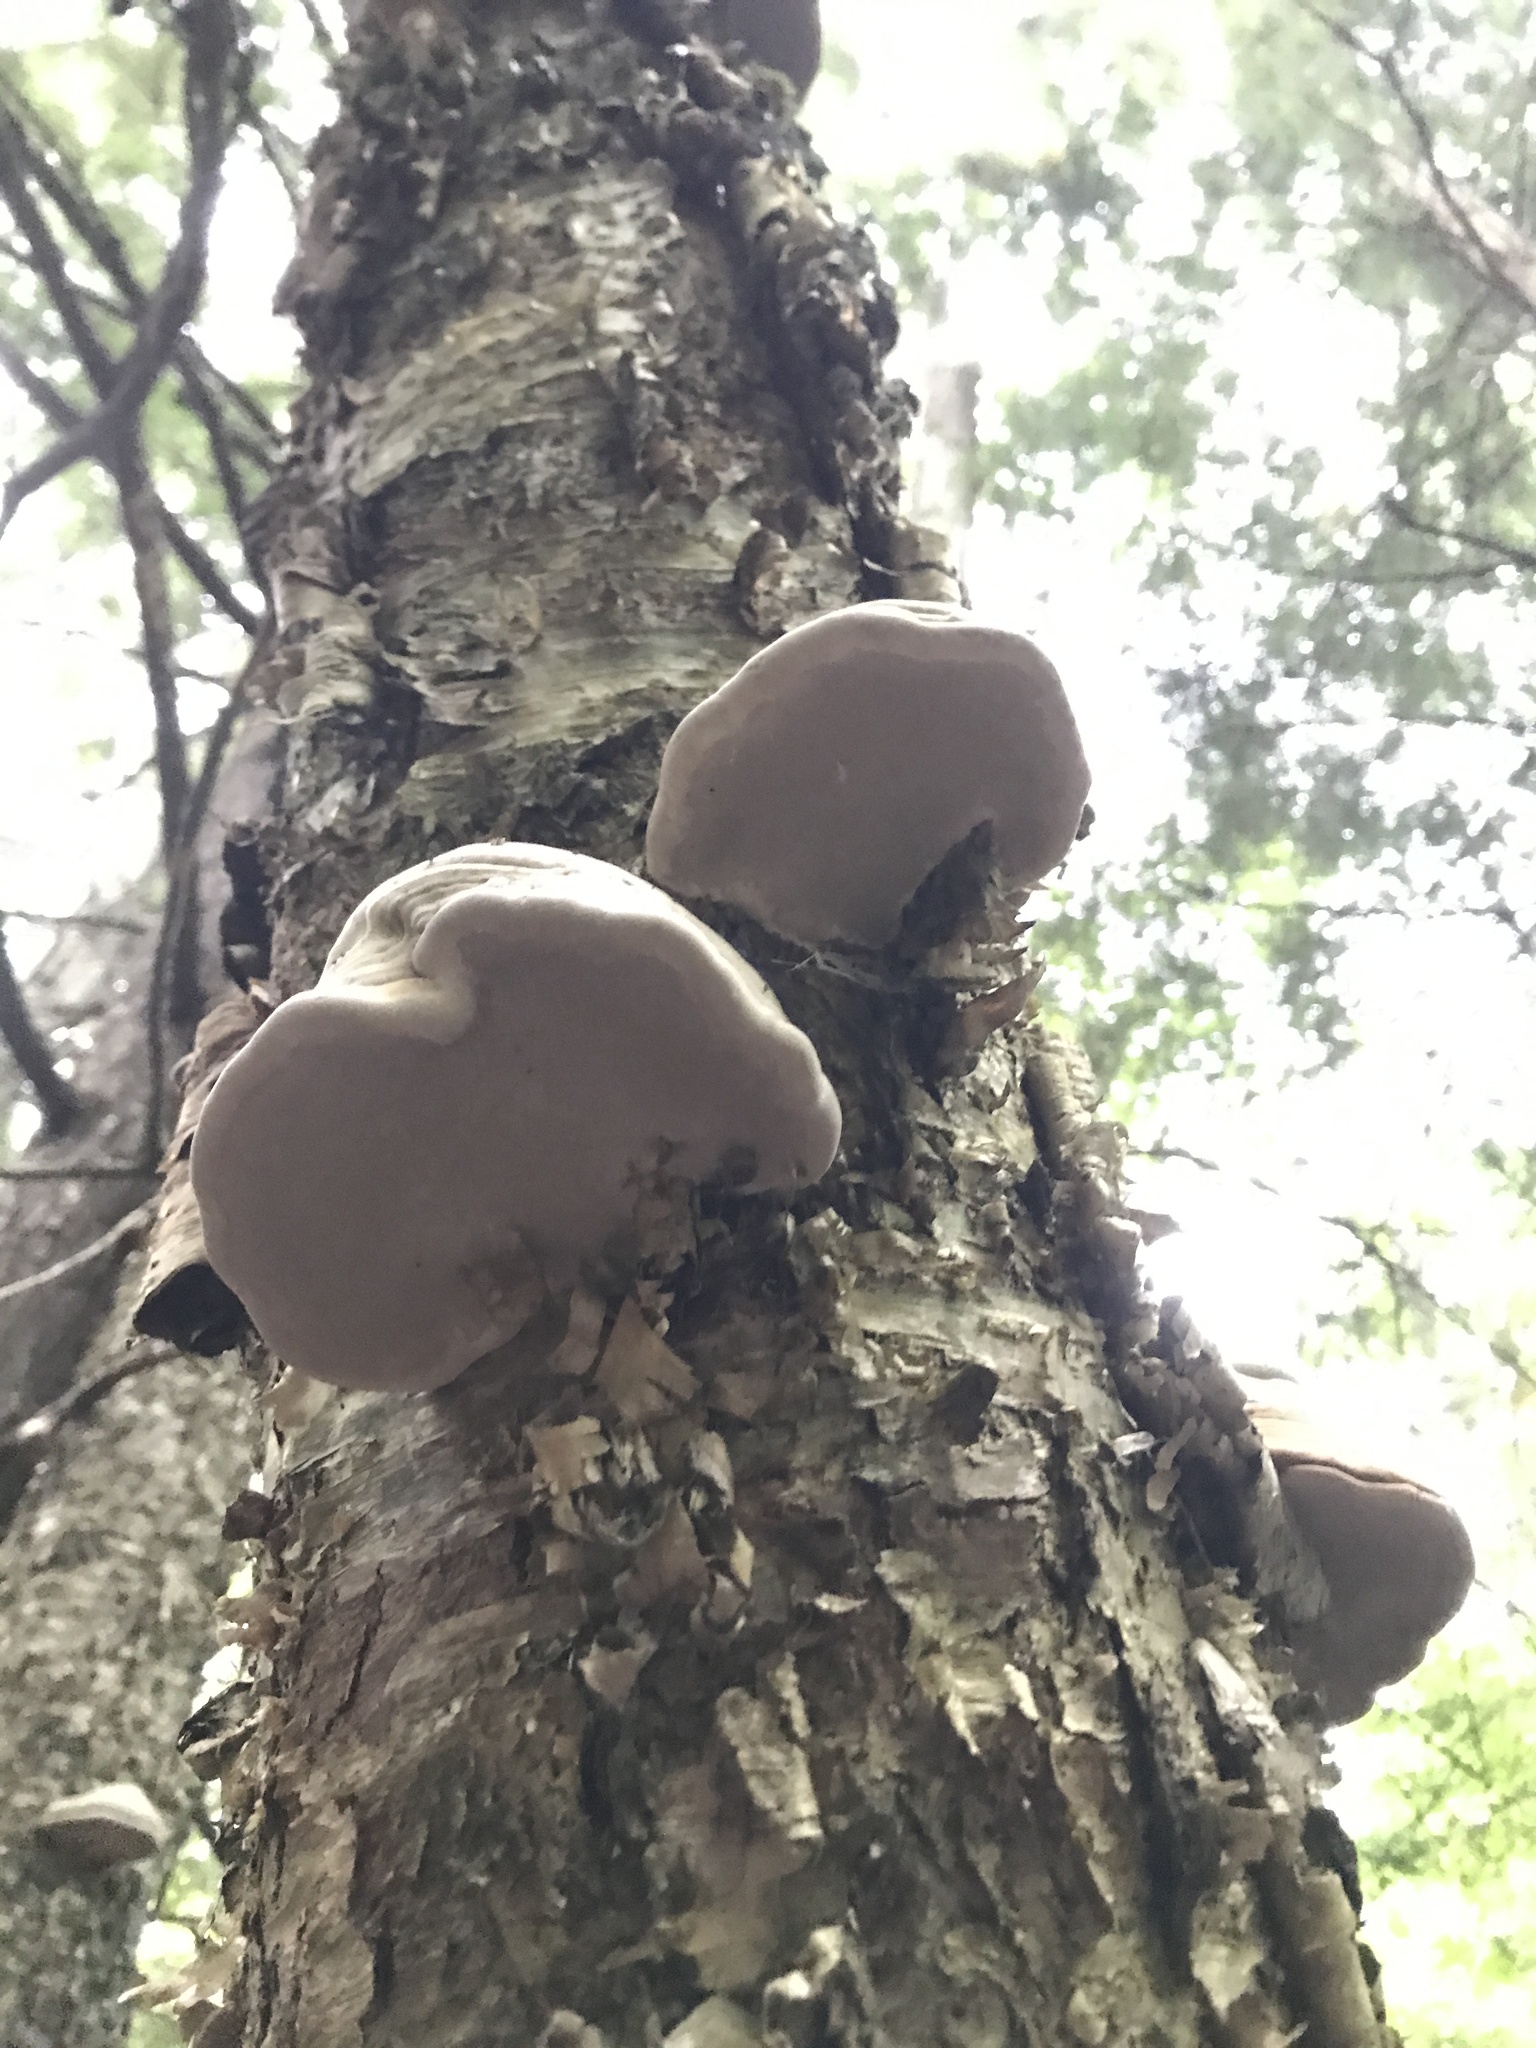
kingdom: Fungi
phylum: Basidiomycota
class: Agaricomycetes
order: Polyporales
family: Polyporaceae
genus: Fomes
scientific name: Fomes fomentarius
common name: Hoof fungus
